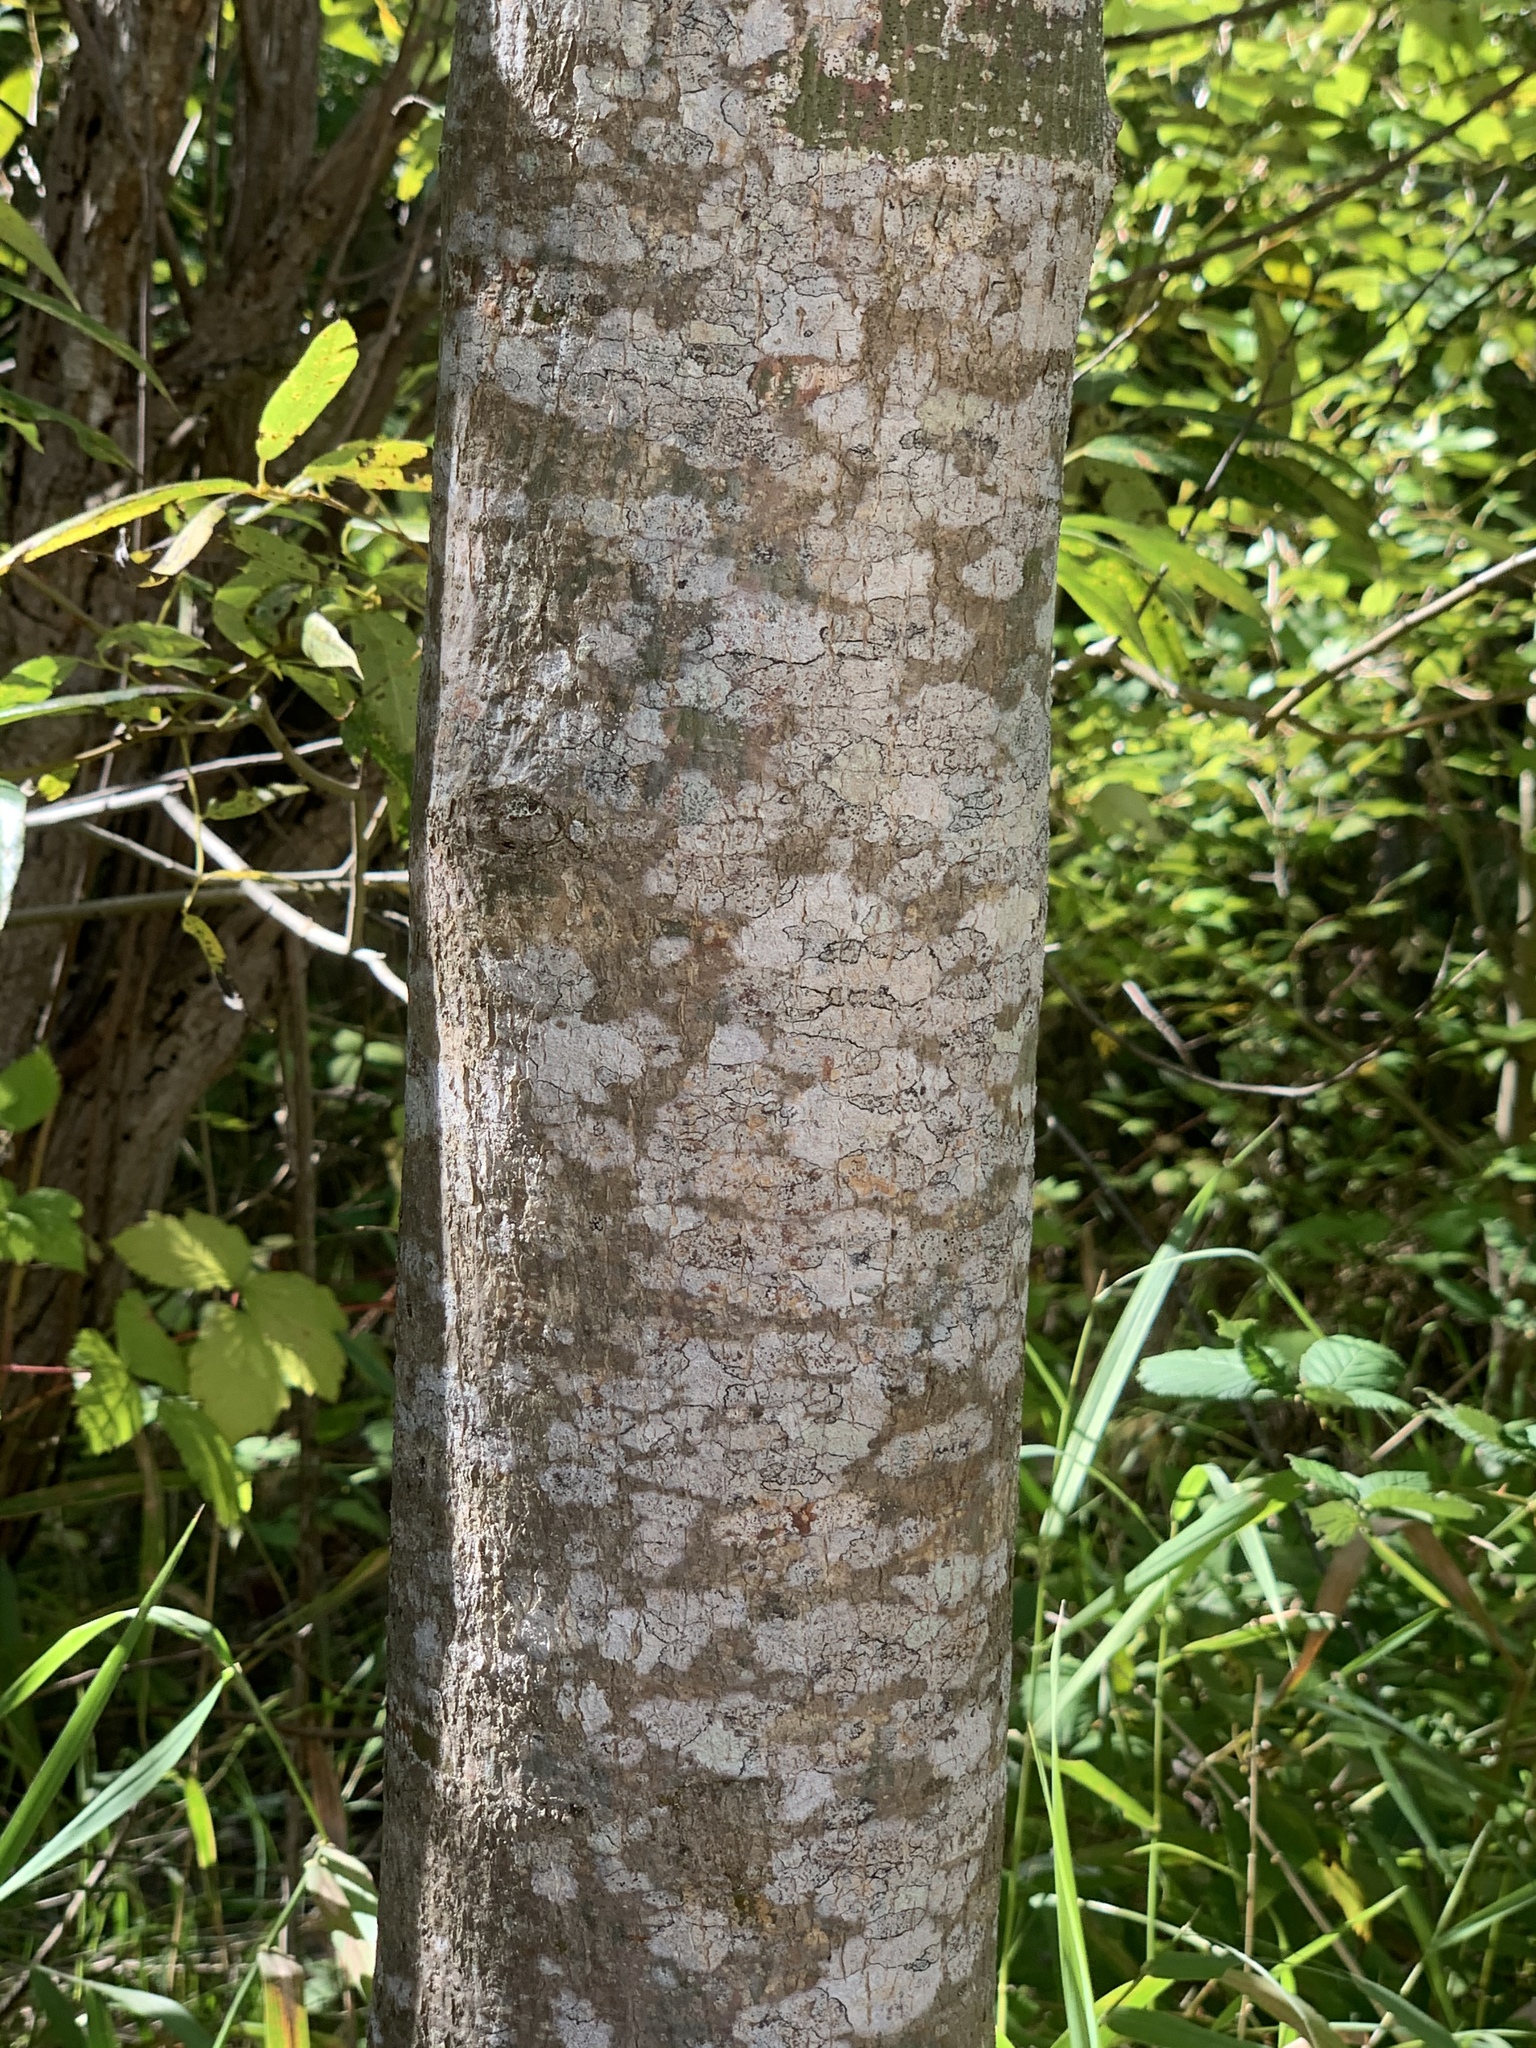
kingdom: Plantae
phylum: Tracheophyta
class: Magnoliopsida
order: Lamiales
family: Oleaceae
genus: Fraxinus
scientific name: Fraxinus latifolia
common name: Oregon ash
